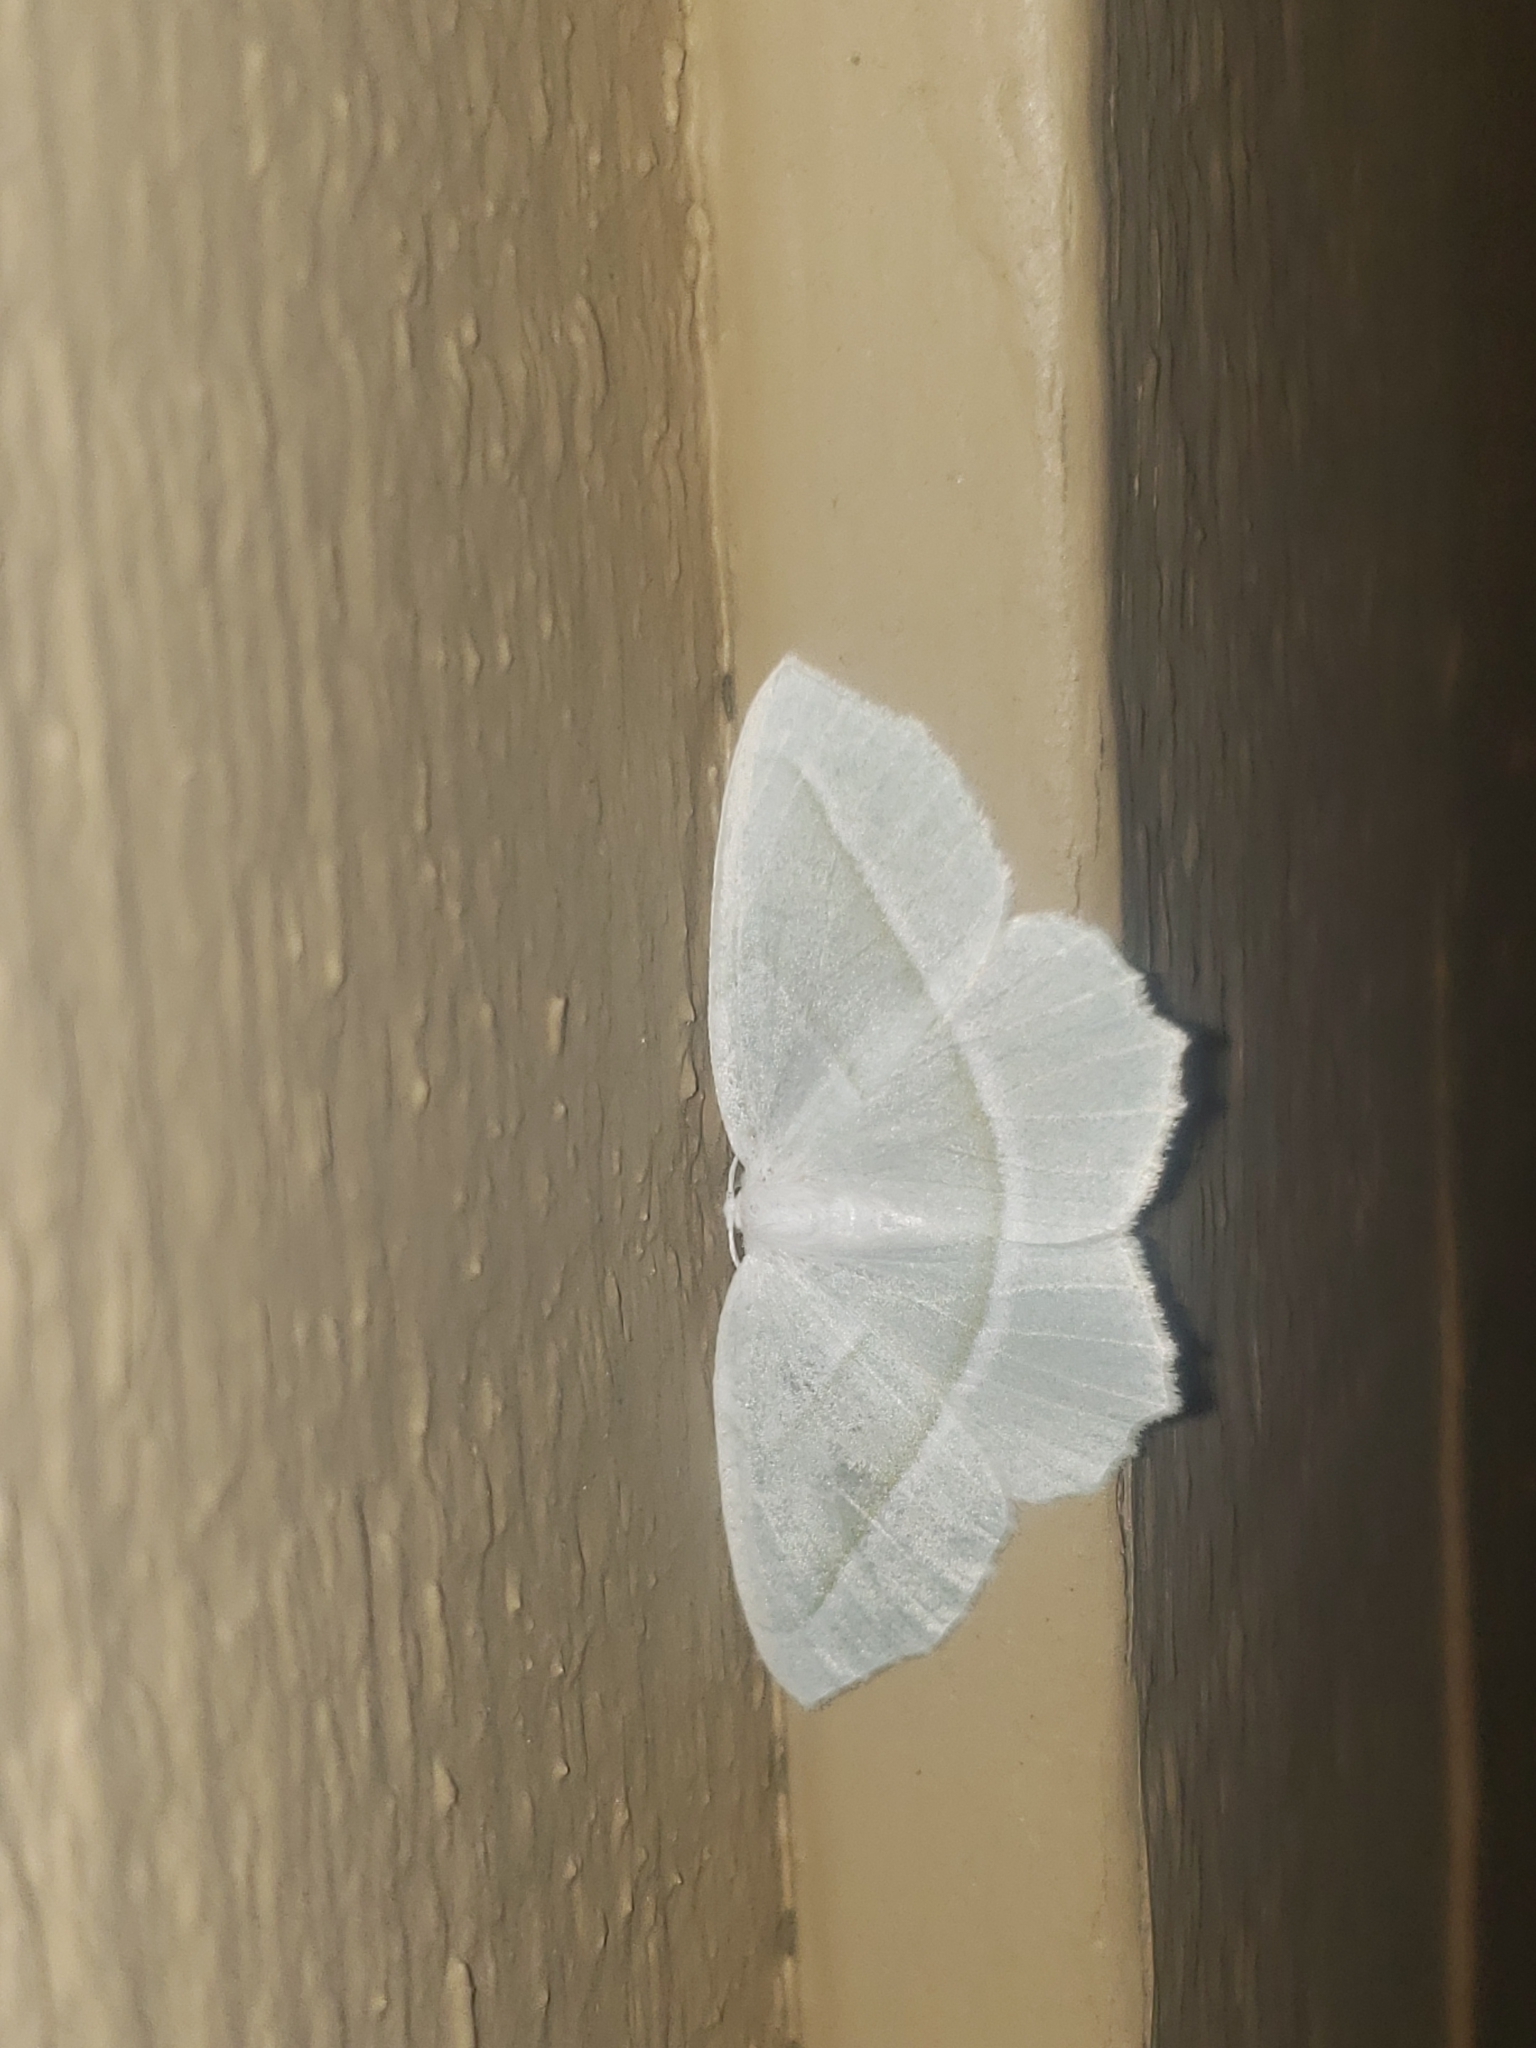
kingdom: Animalia
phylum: Arthropoda
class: Insecta
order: Lepidoptera
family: Geometridae
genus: Campaea
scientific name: Campaea perlata
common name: Fringed looper
